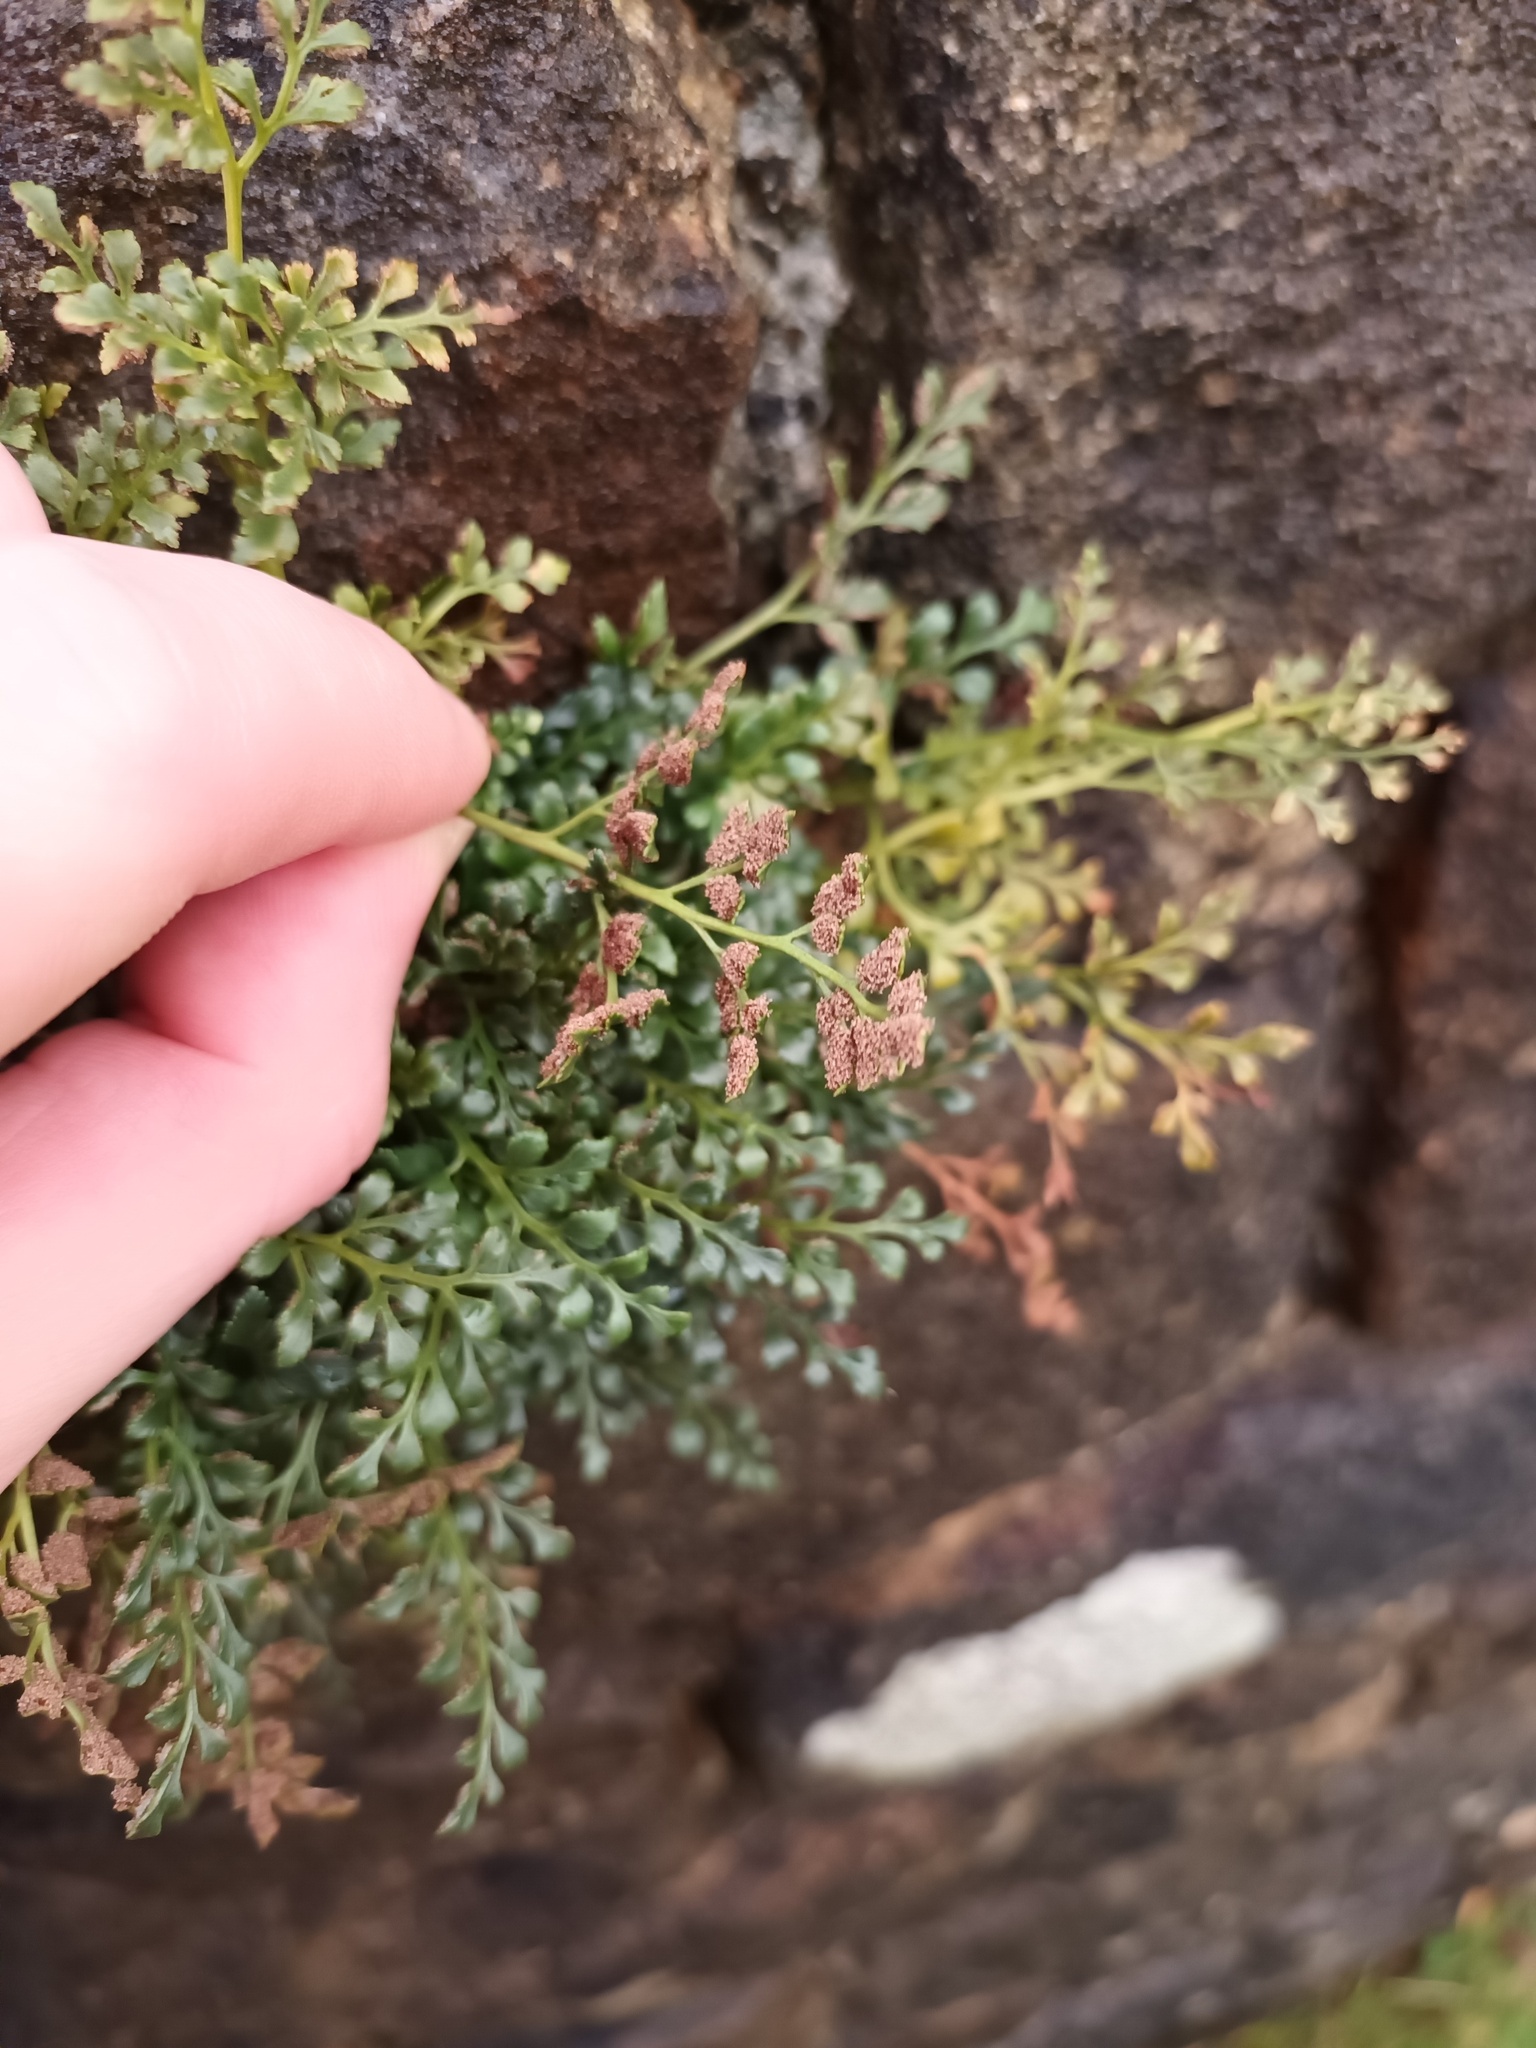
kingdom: Plantae
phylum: Tracheophyta
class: Polypodiopsida
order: Polypodiales
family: Aspleniaceae
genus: Asplenium
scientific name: Asplenium ruta-muraria
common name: Wall-rue
